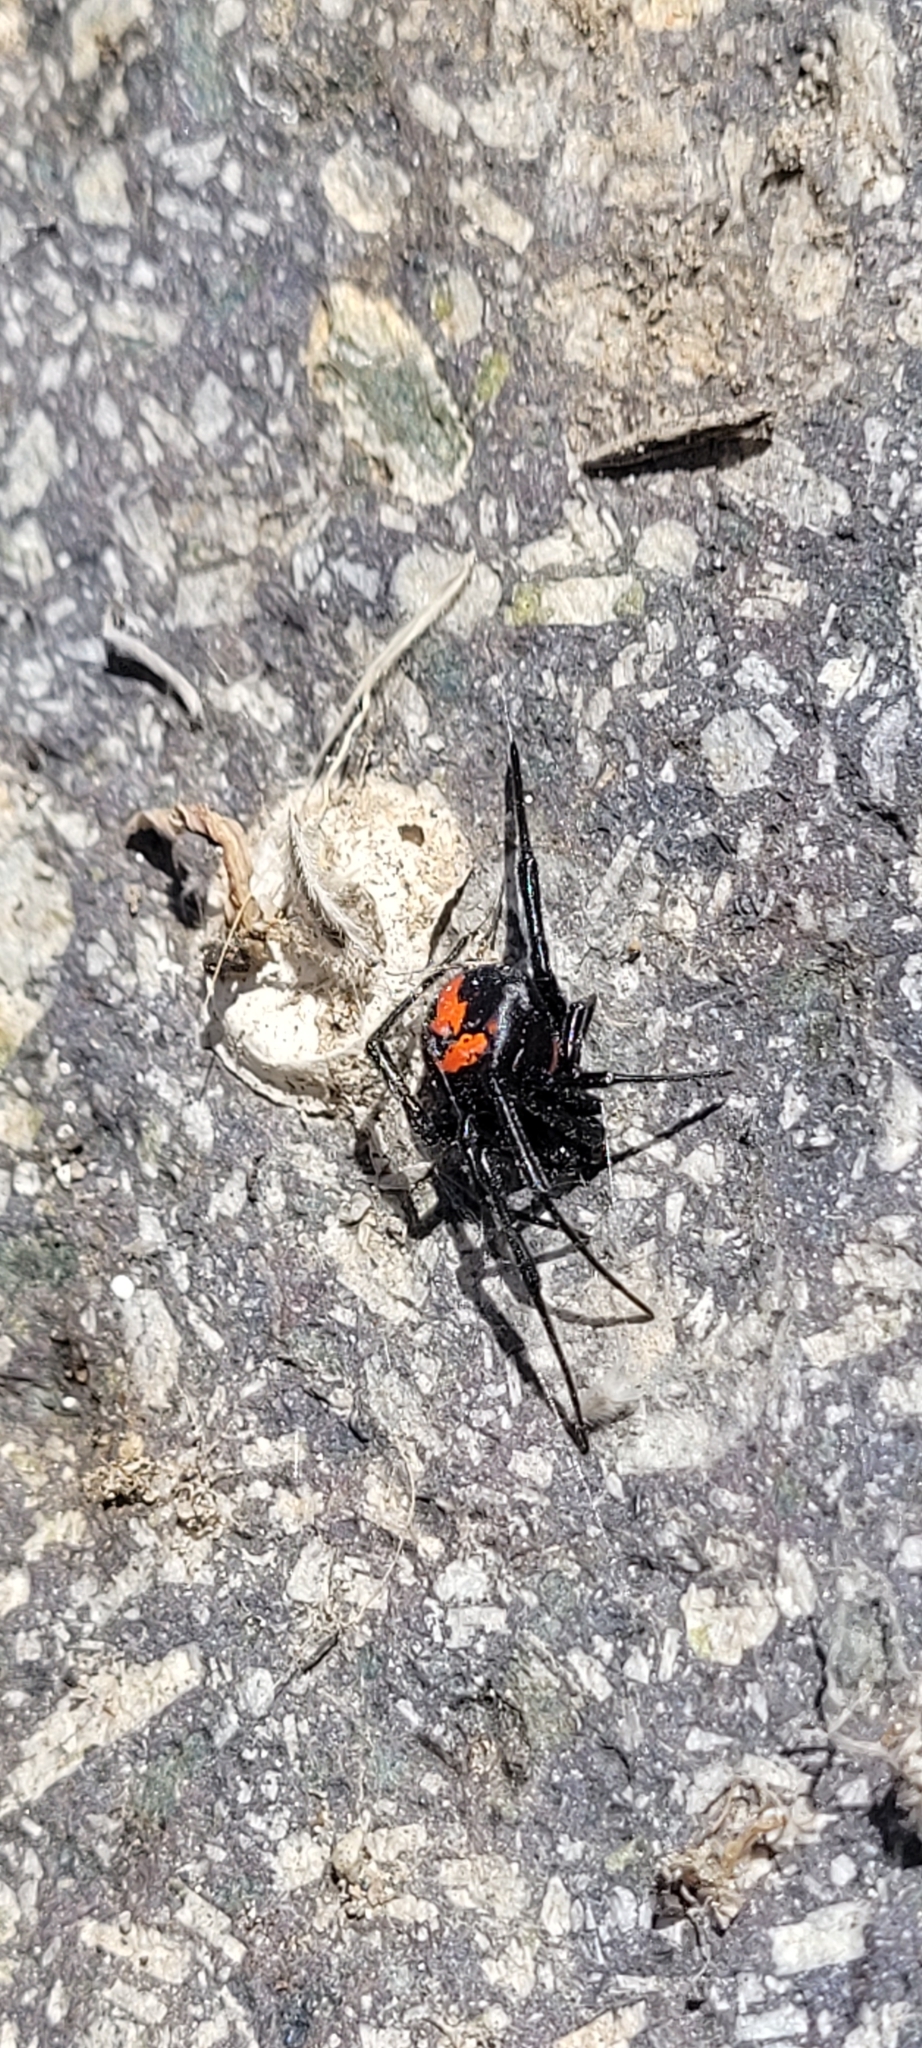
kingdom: Animalia
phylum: Arthropoda
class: Arachnida
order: Araneae
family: Theridiidae
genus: Latrodectus
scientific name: Latrodectus thoracicus
